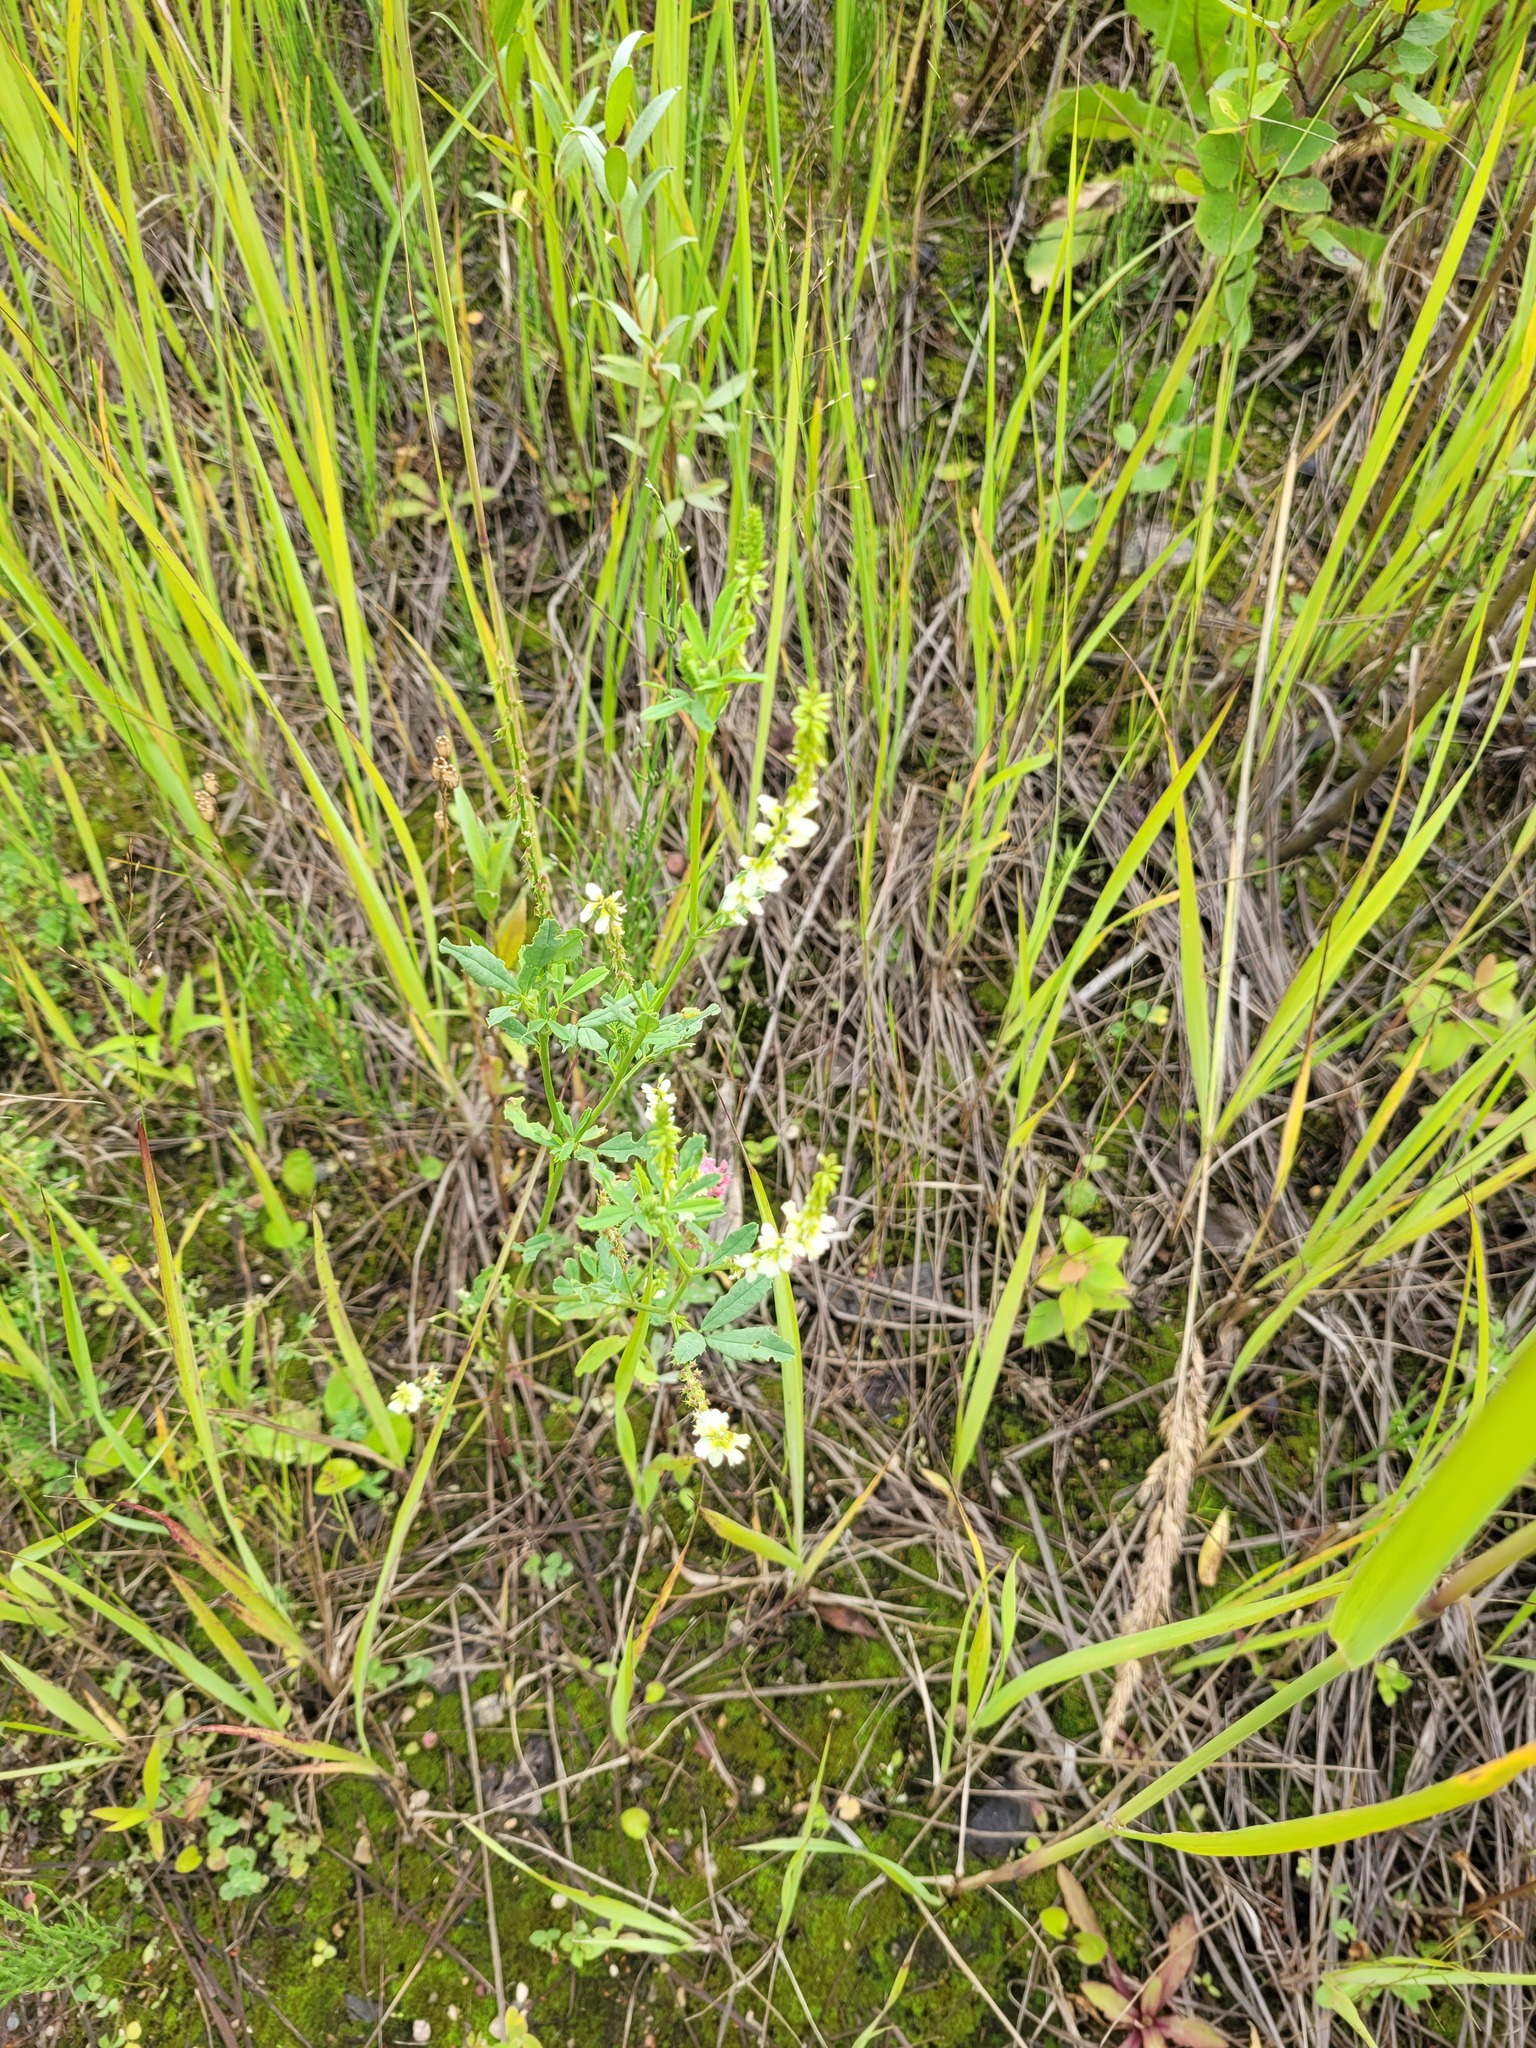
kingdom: Plantae
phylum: Tracheophyta
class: Magnoliopsida
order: Fabales
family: Fabaceae
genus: Melilotus
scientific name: Melilotus albus
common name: White melilot
